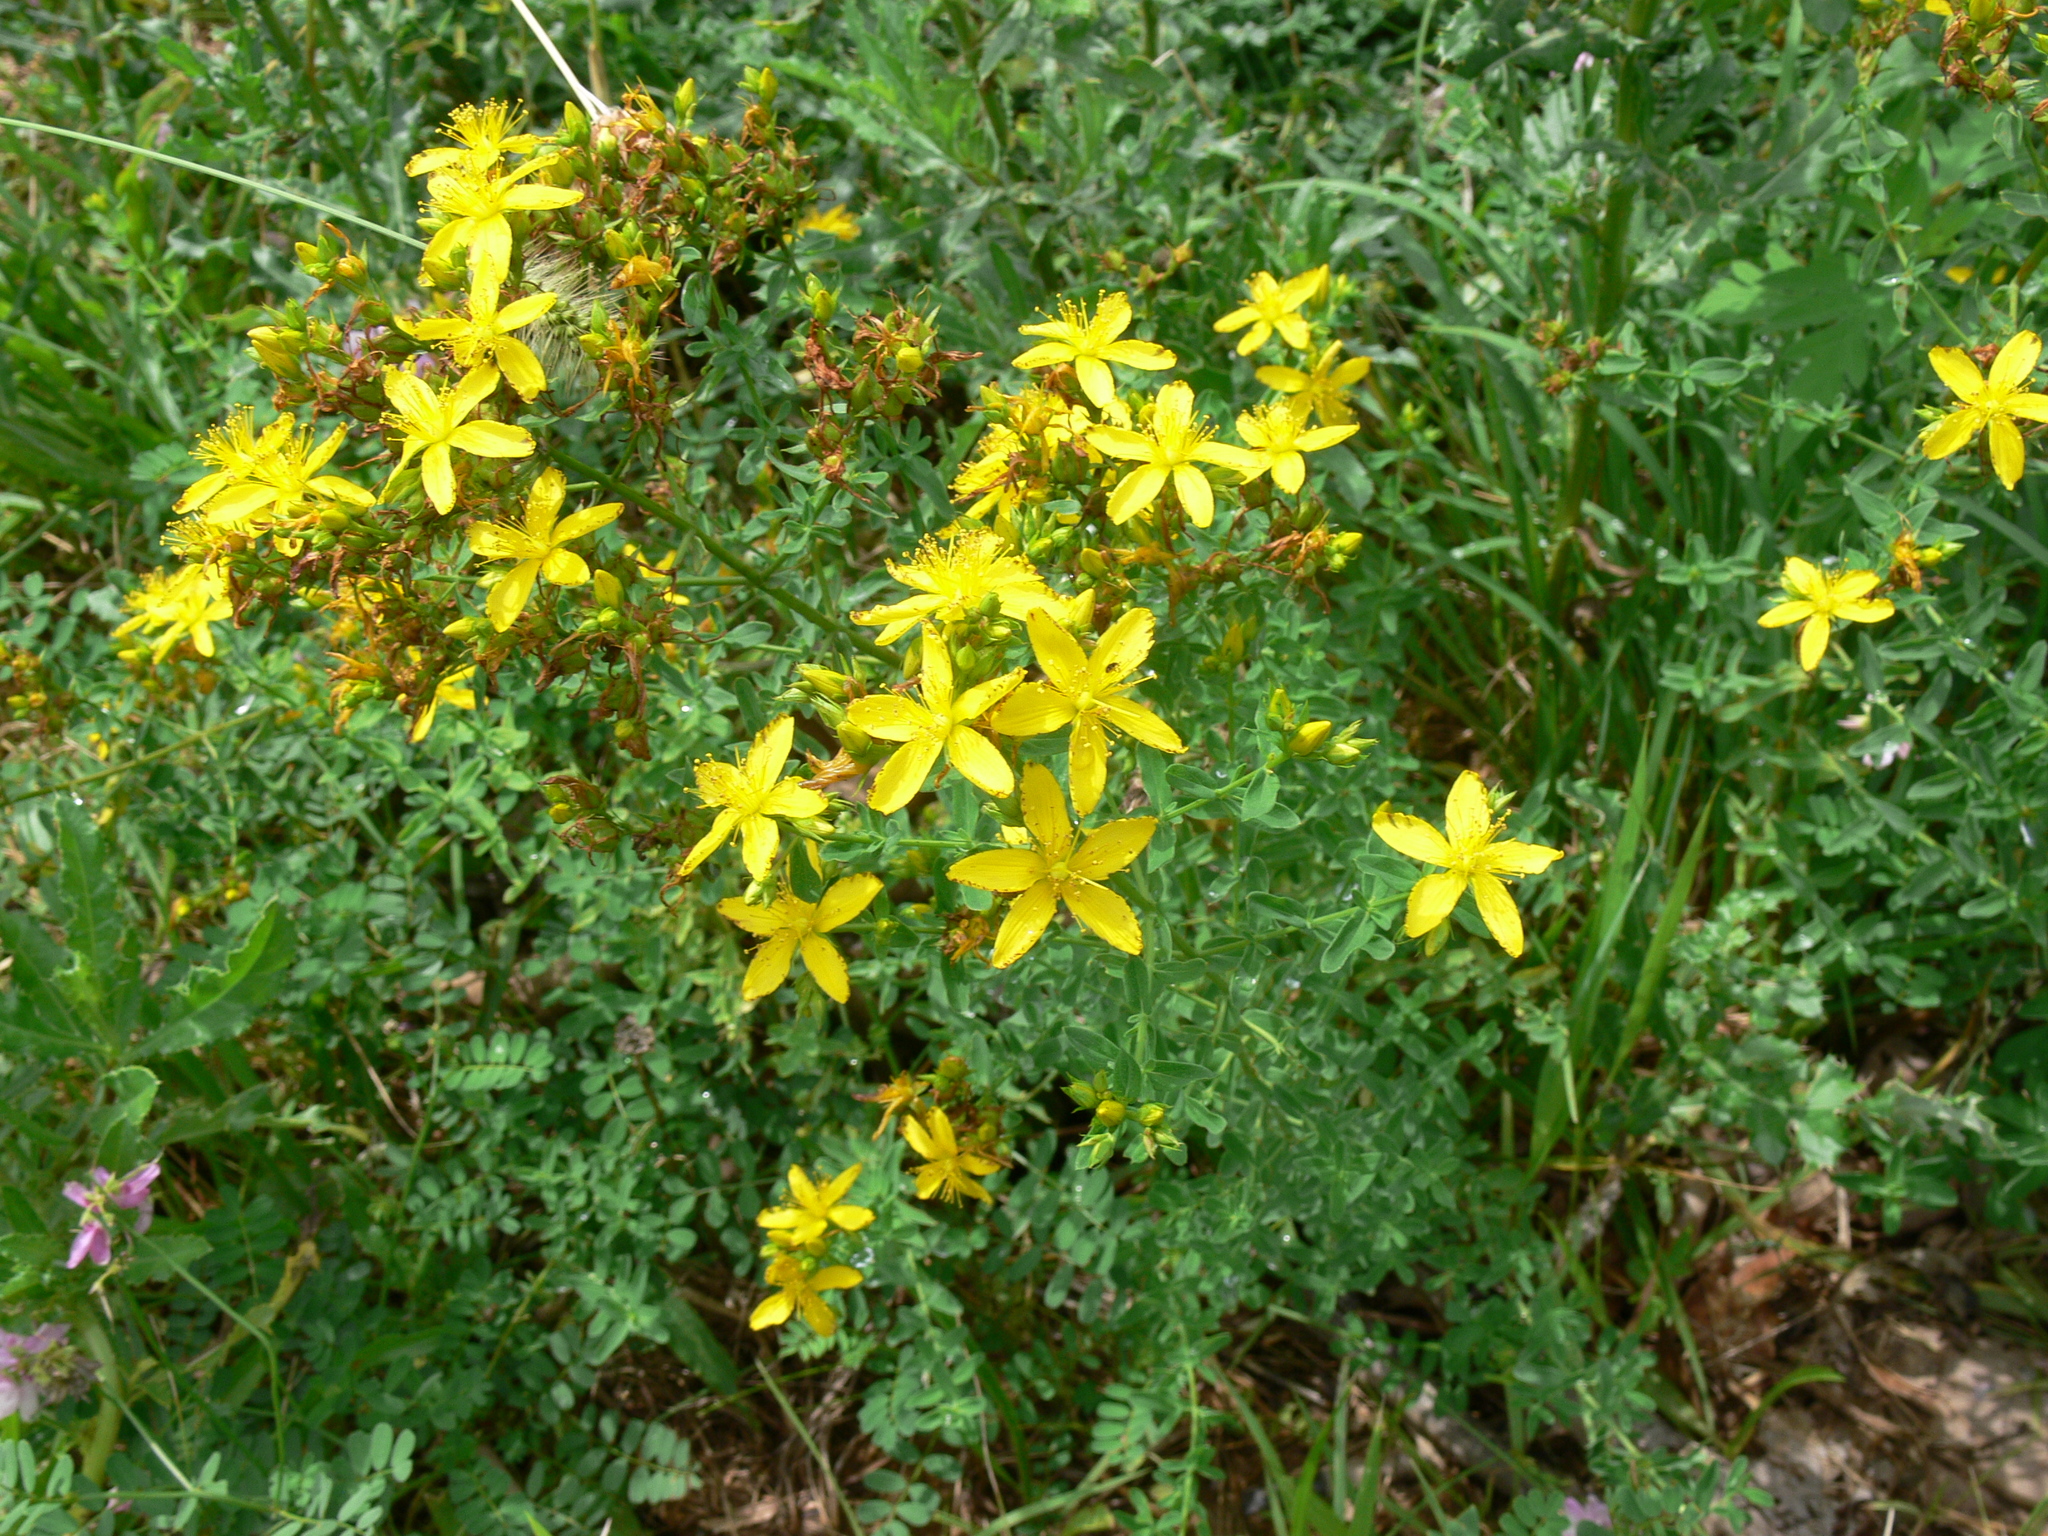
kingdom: Plantae
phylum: Tracheophyta
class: Magnoliopsida
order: Malpighiales
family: Hypericaceae
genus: Hypericum
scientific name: Hypericum perforatum
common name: Common st. johnswort
